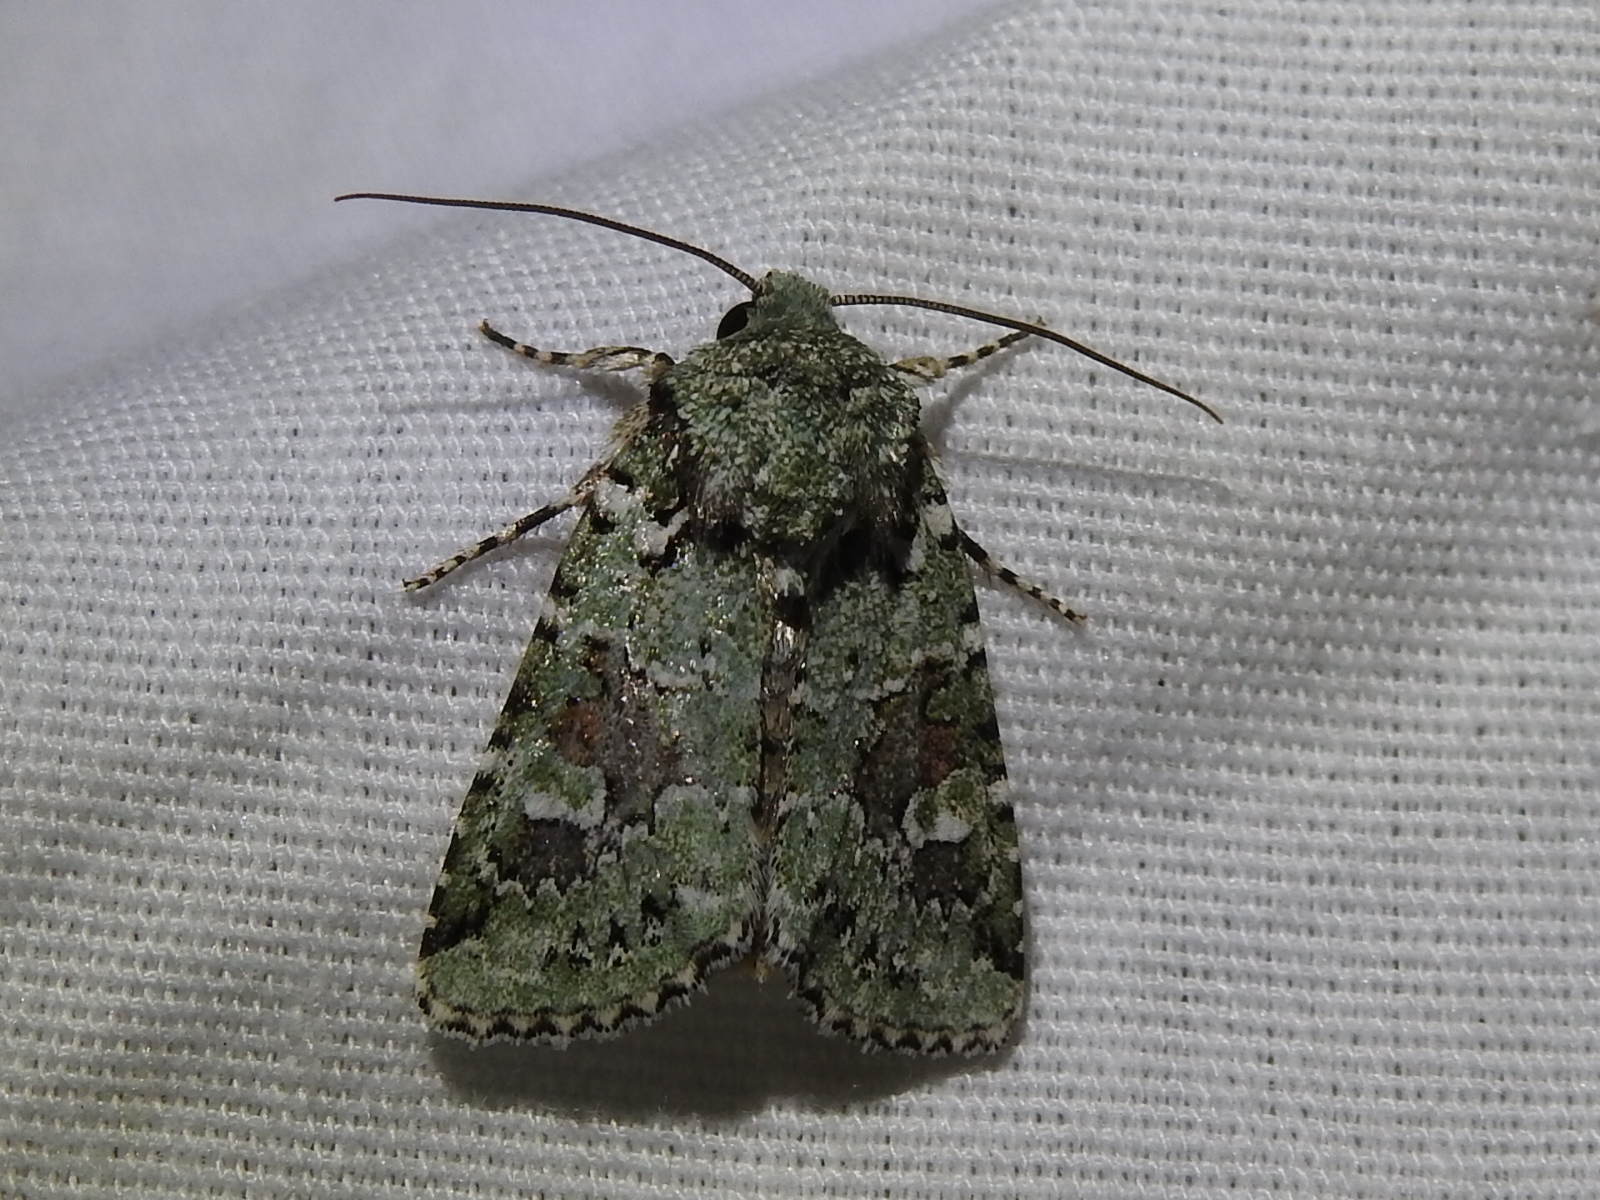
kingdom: Animalia
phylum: Arthropoda
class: Insecta
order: Lepidoptera
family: Noctuidae
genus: Lacinipolia
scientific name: Lacinipolia laudabilis
